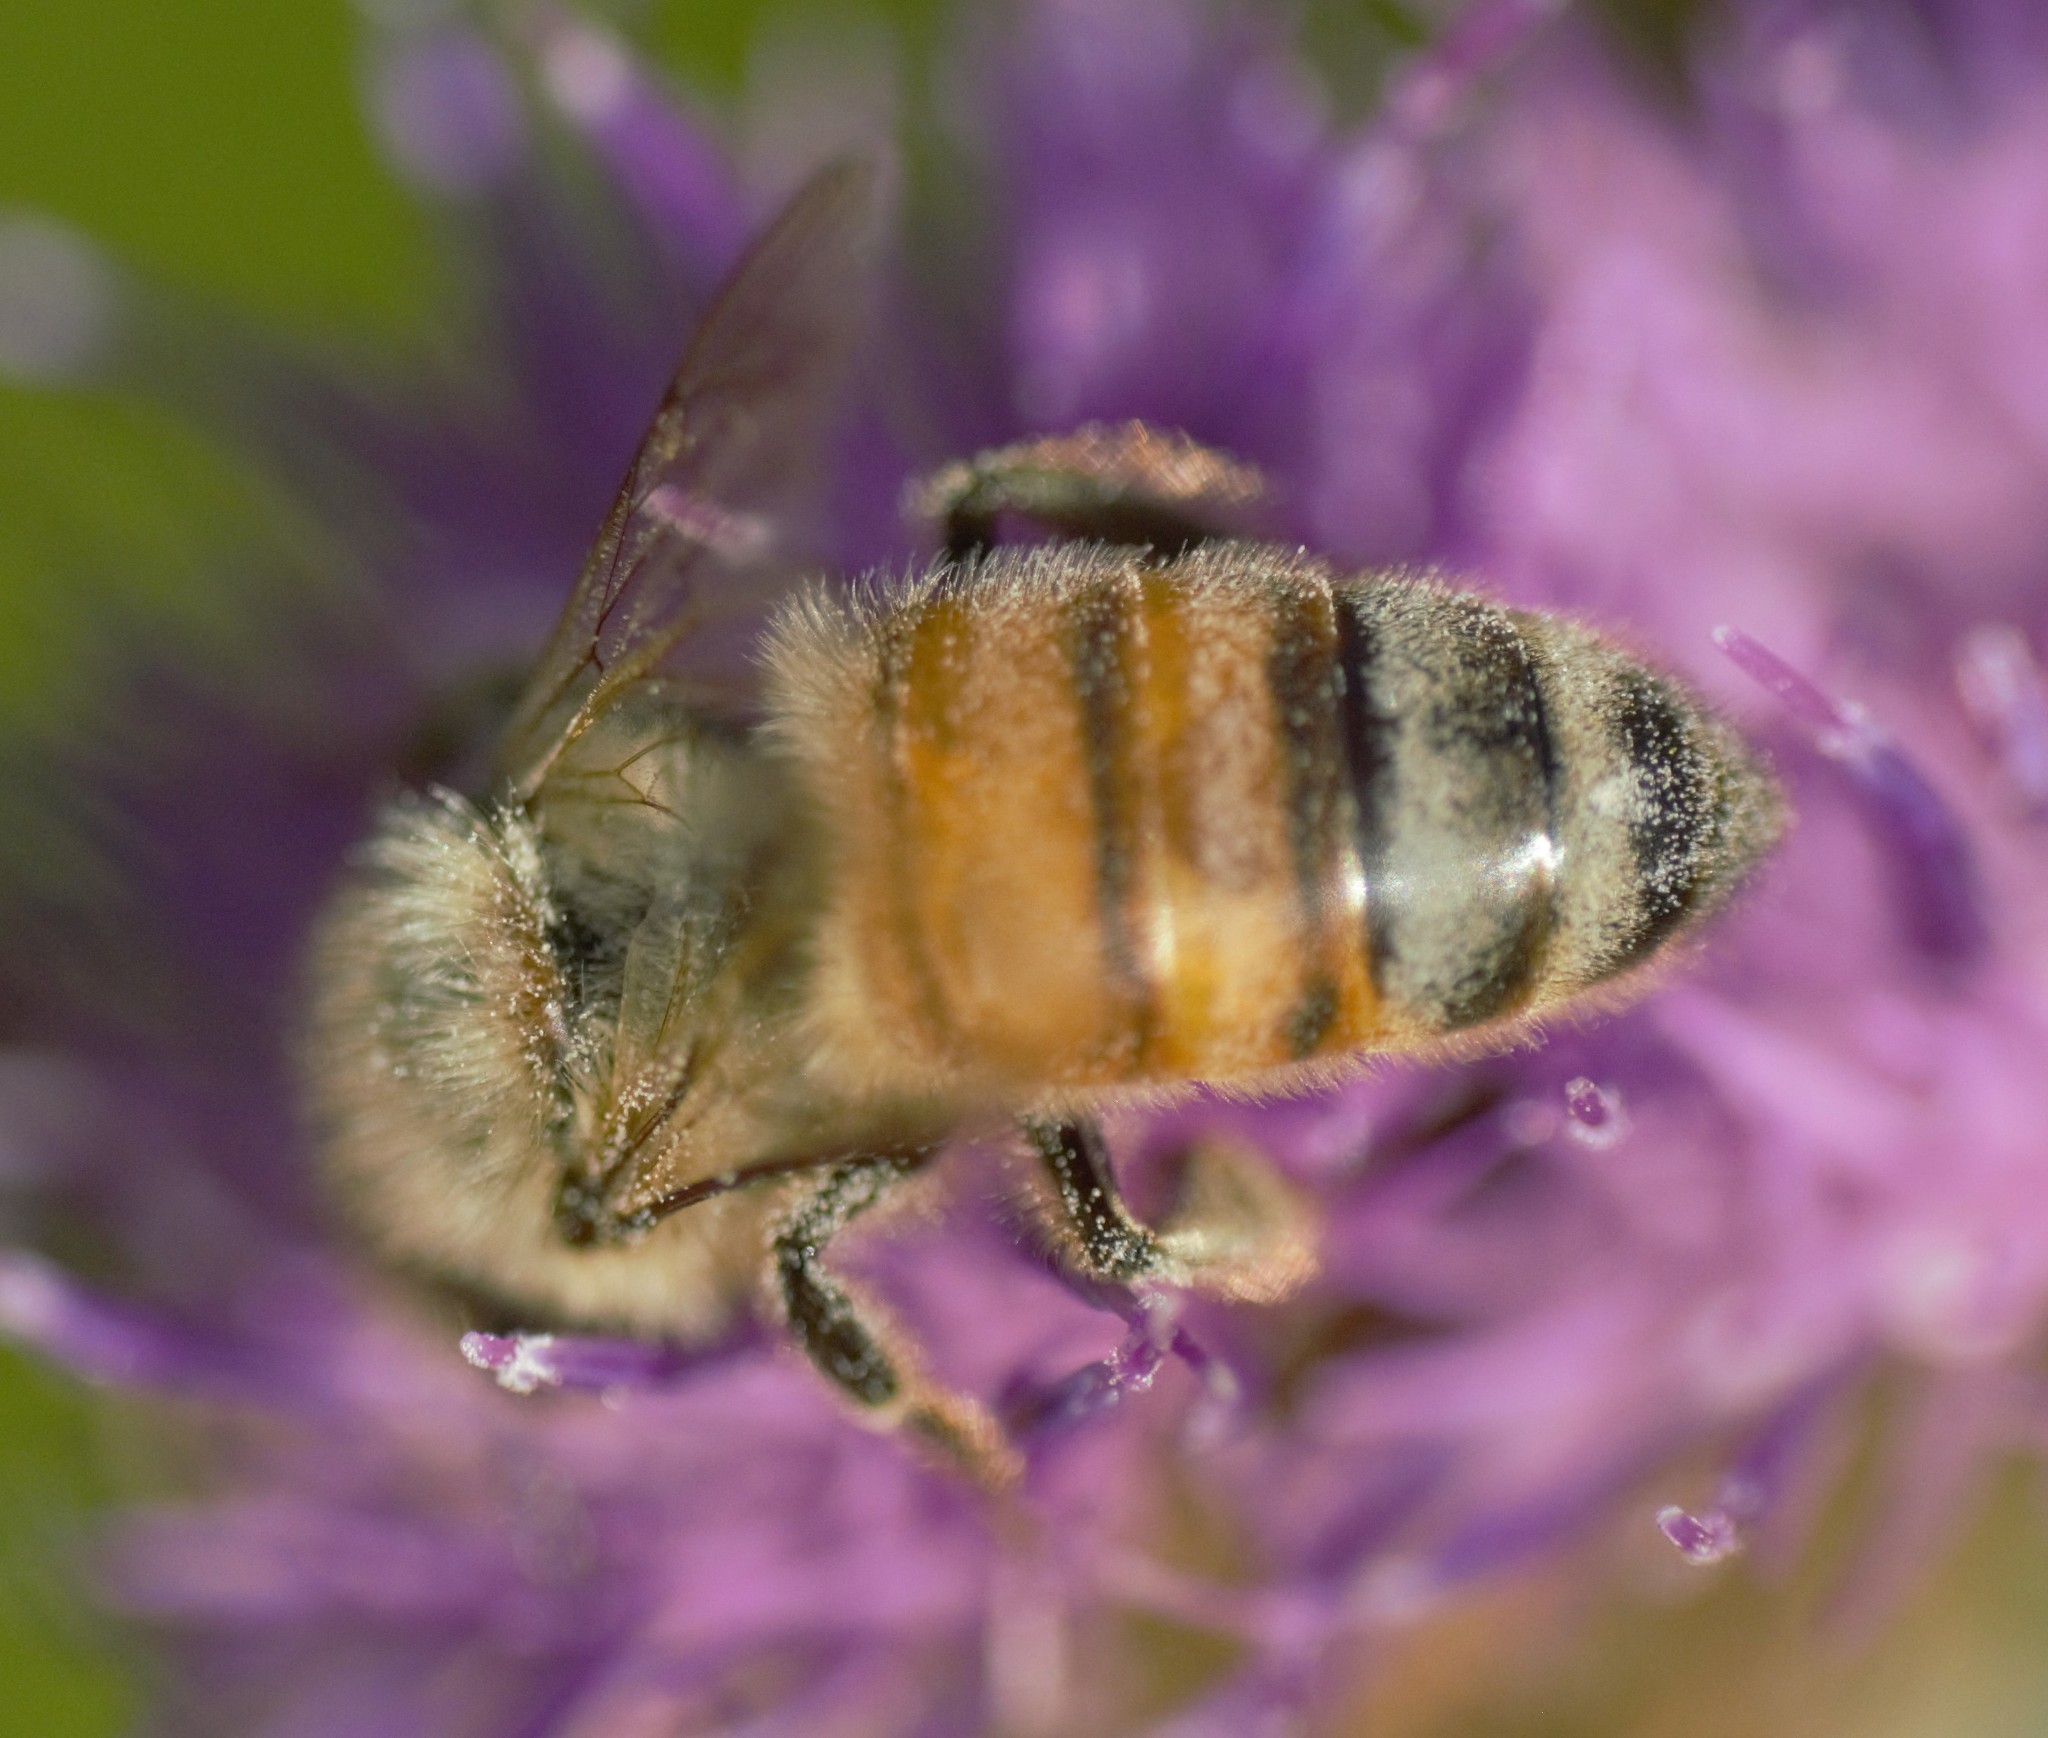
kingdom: Animalia
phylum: Arthropoda
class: Insecta
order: Hymenoptera
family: Apidae
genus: Apis
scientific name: Apis mellifera
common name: Honey bee
